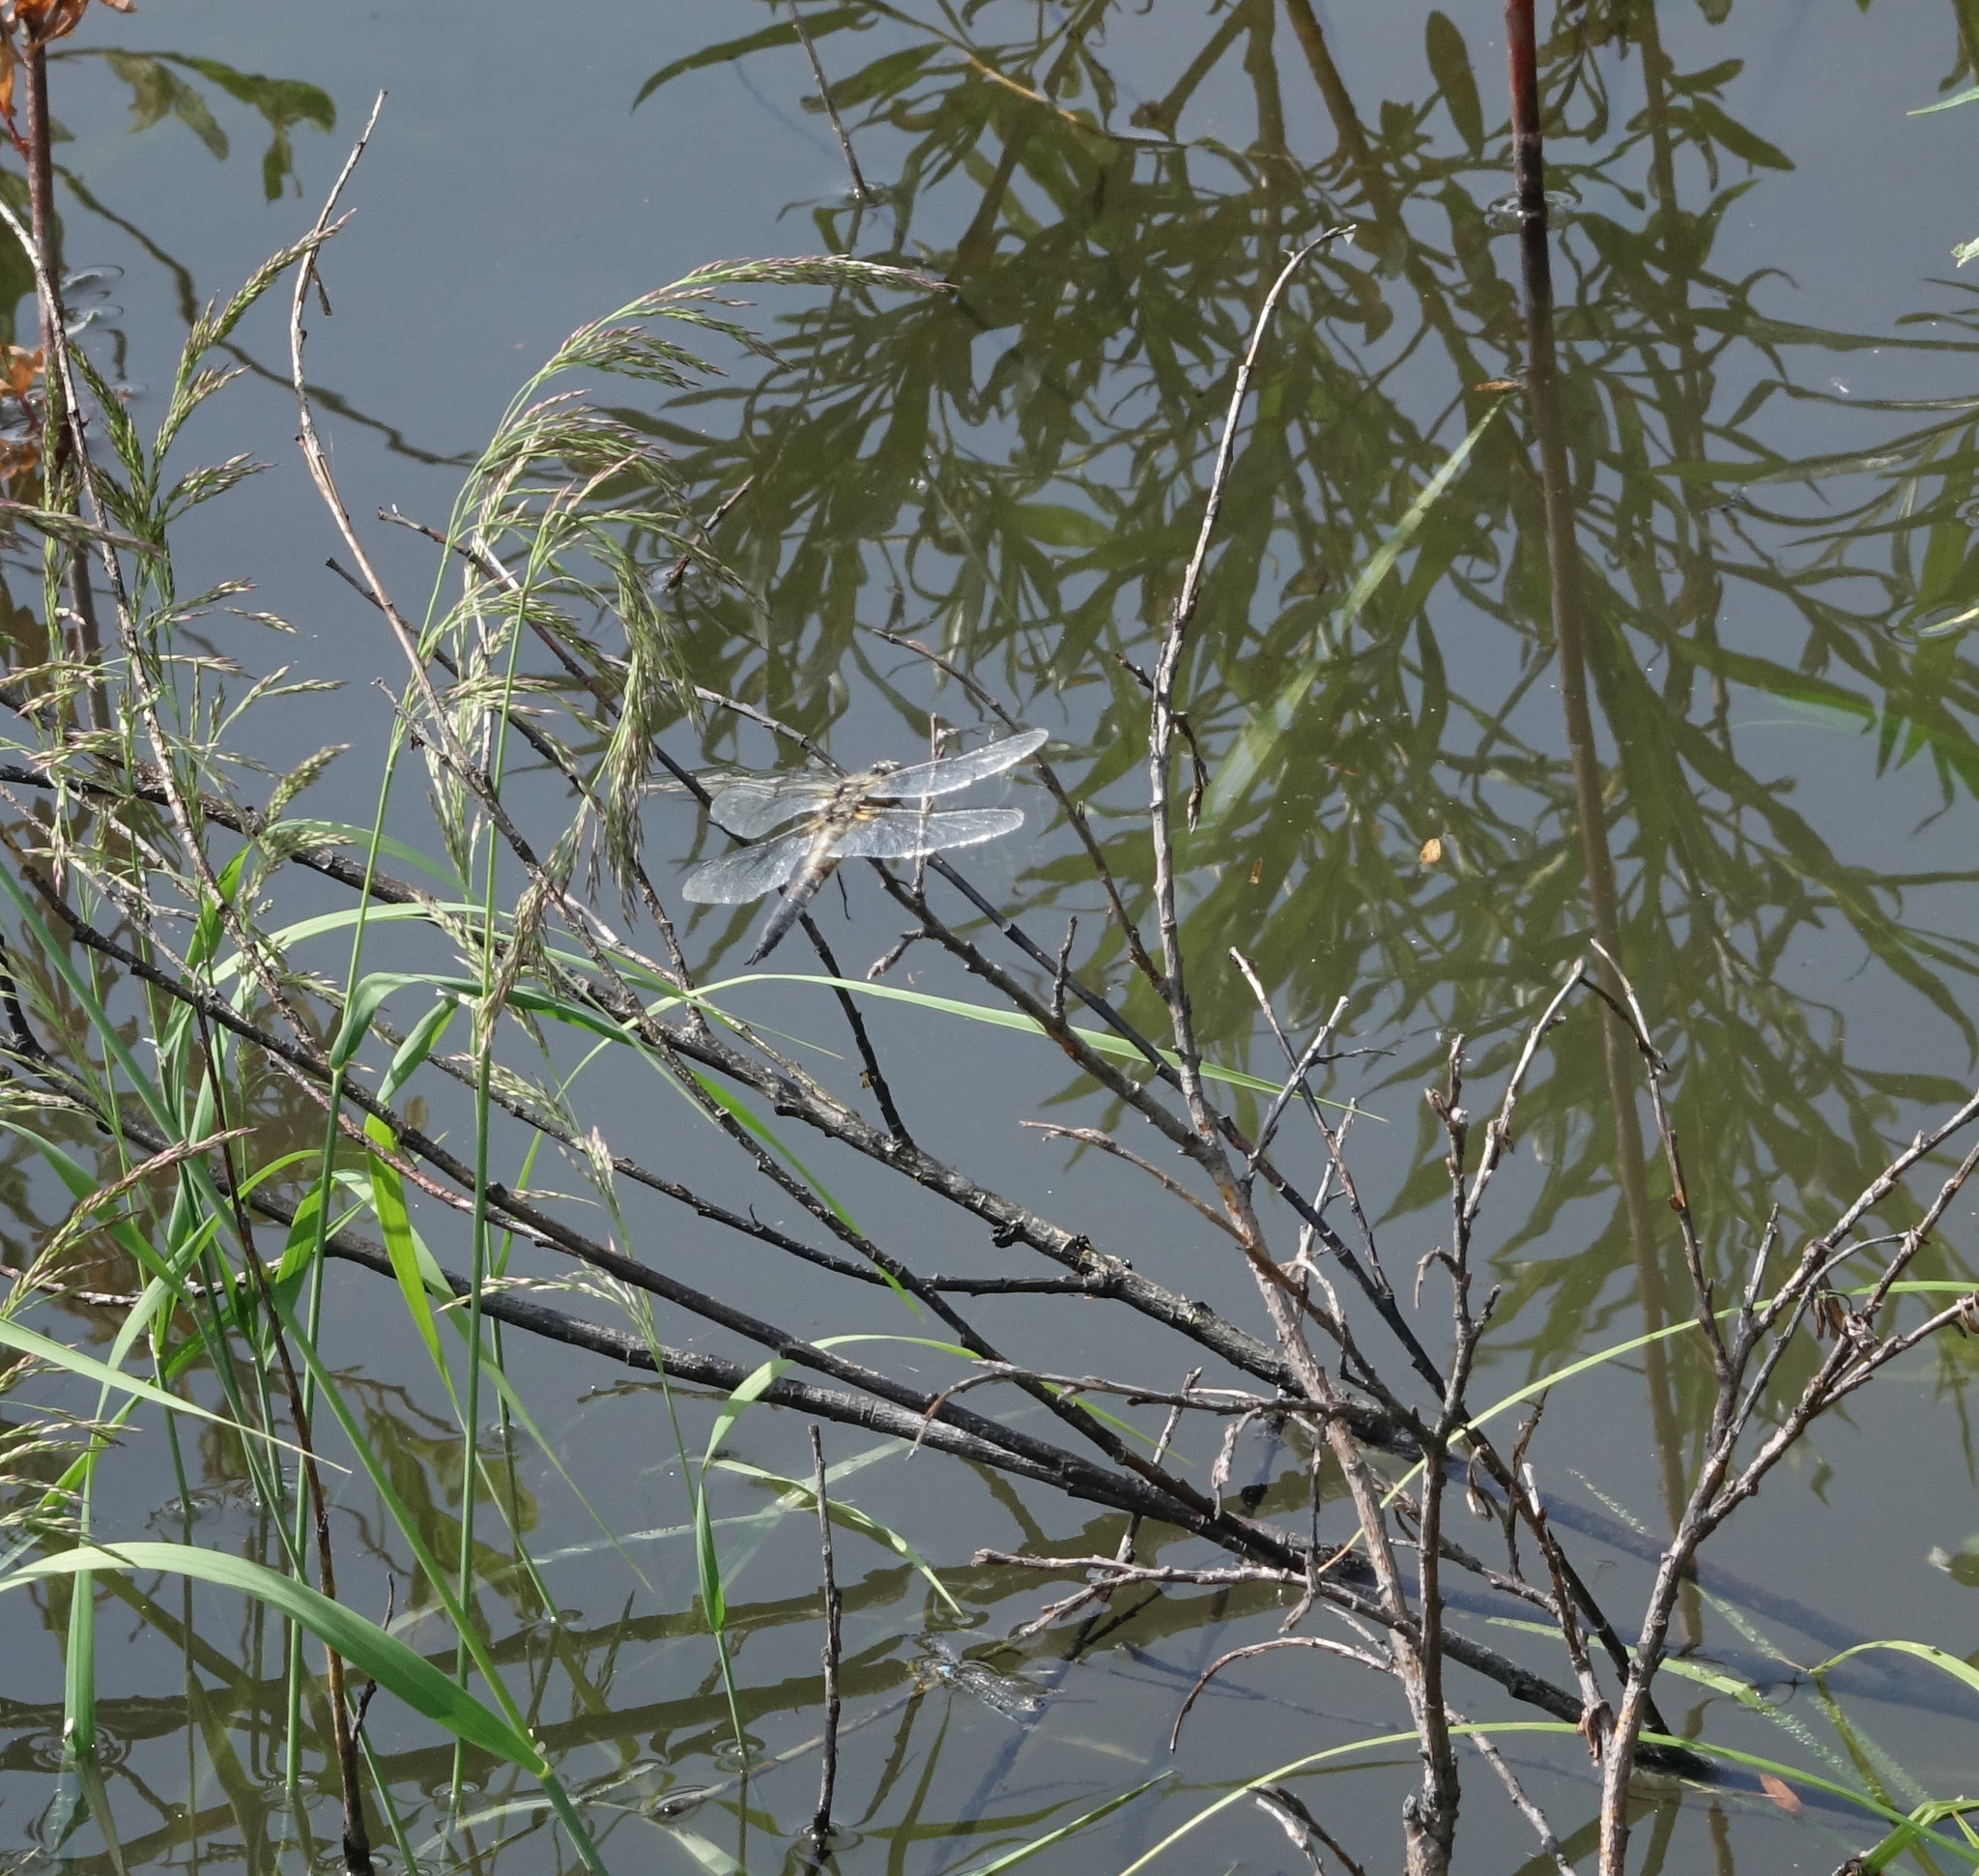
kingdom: Animalia
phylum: Arthropoda
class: Insecta
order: Odonata
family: Libellulidae
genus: Libellula
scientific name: Libellula quadrimaculata
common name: Four-spotted chaser
